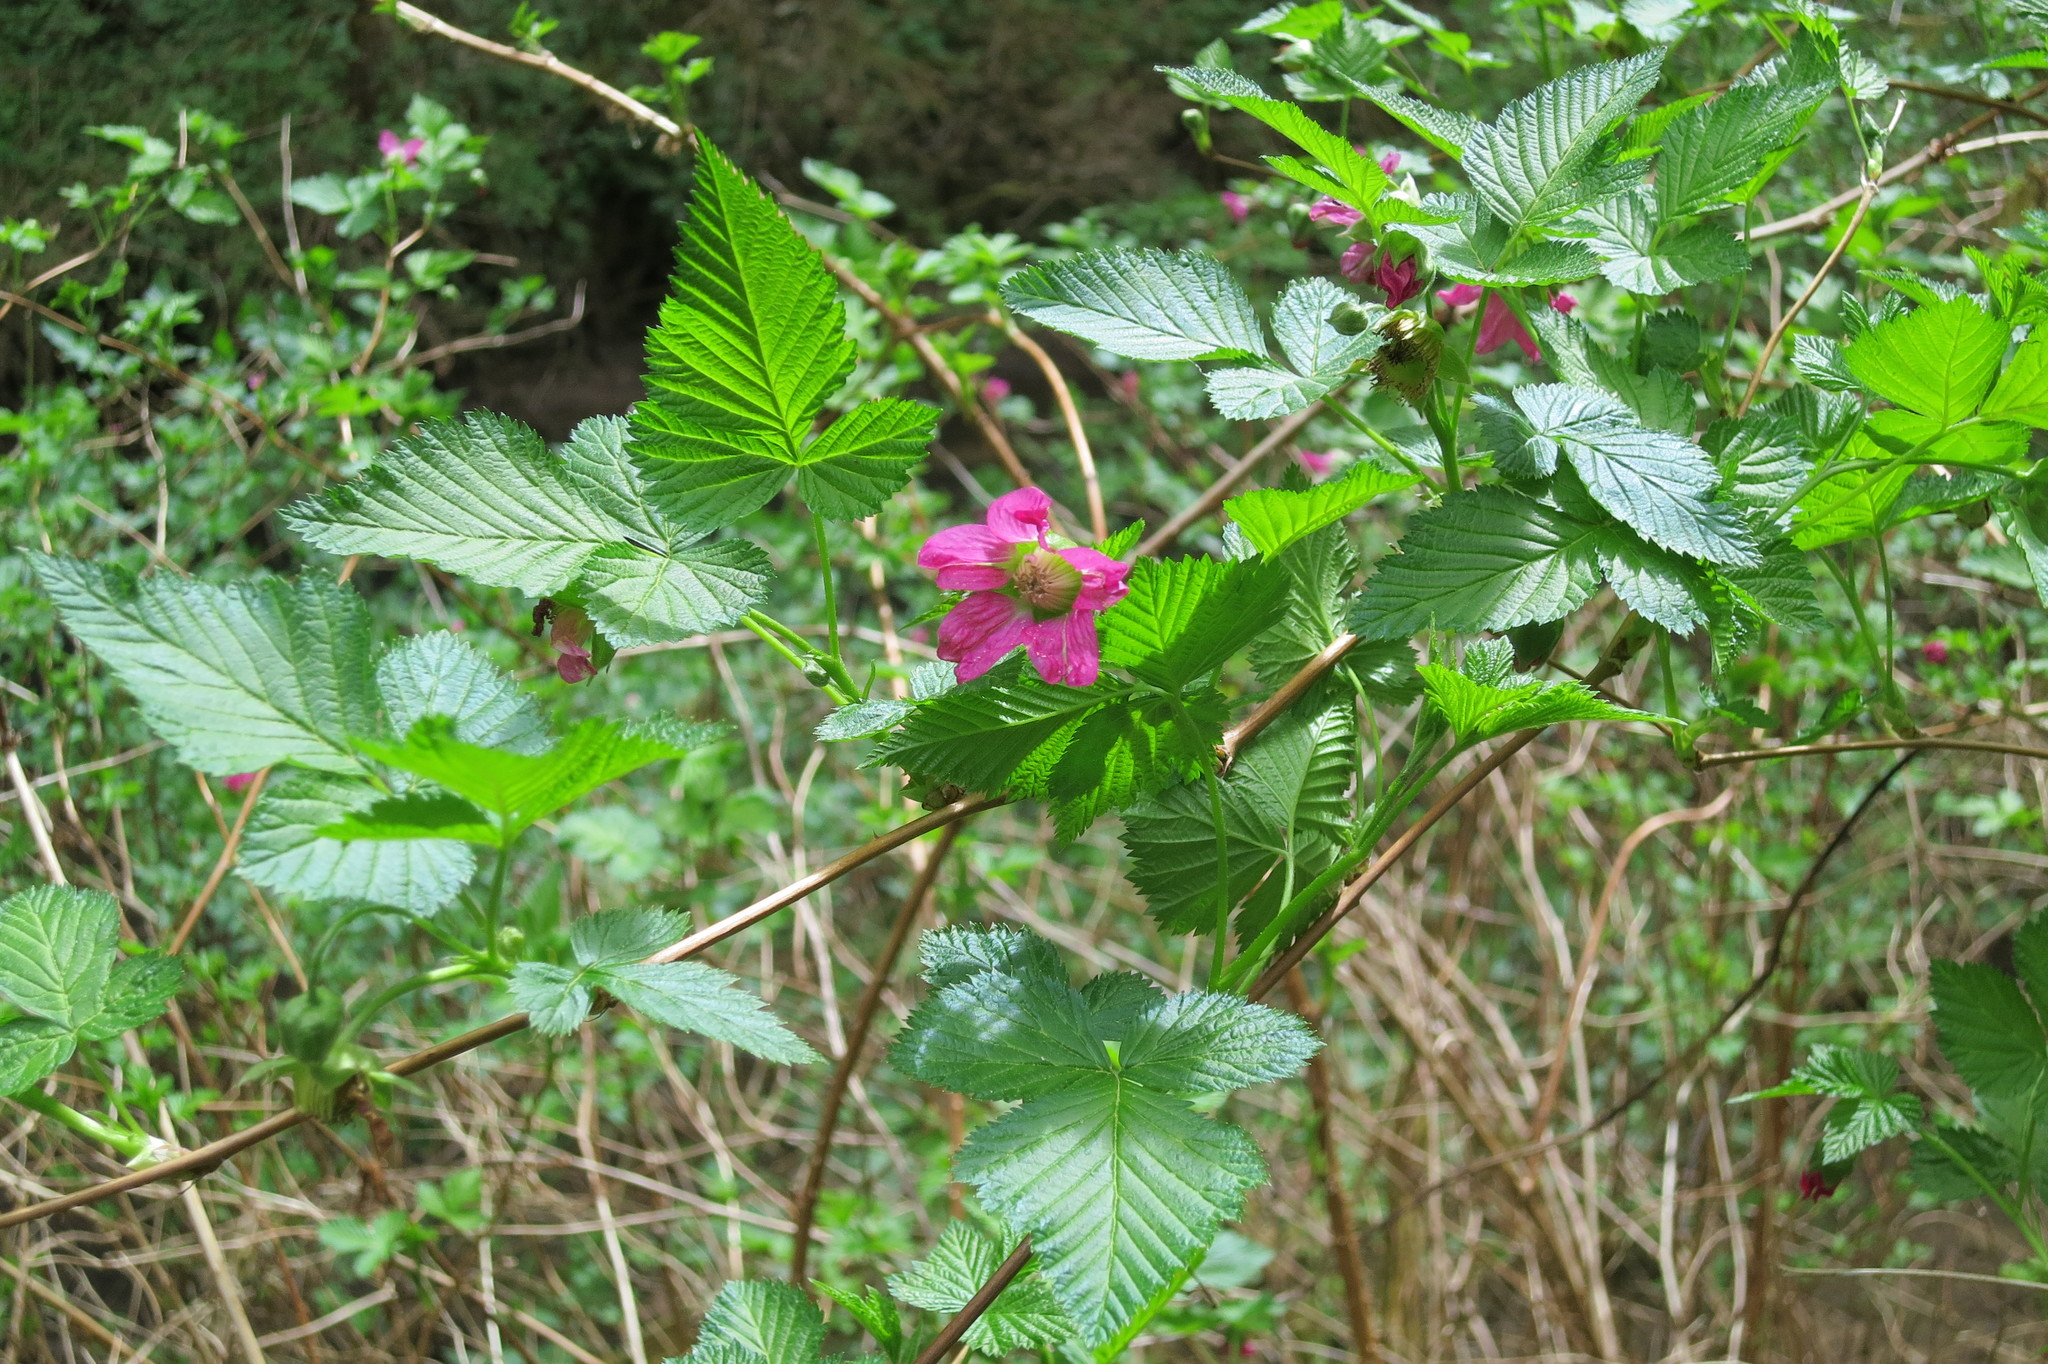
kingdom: Plantae
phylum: Tracheophyta
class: Magnoliopsida
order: Rosales
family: Rosaceae
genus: Rubus
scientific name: Rubus spectabilis
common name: Salmonberry
